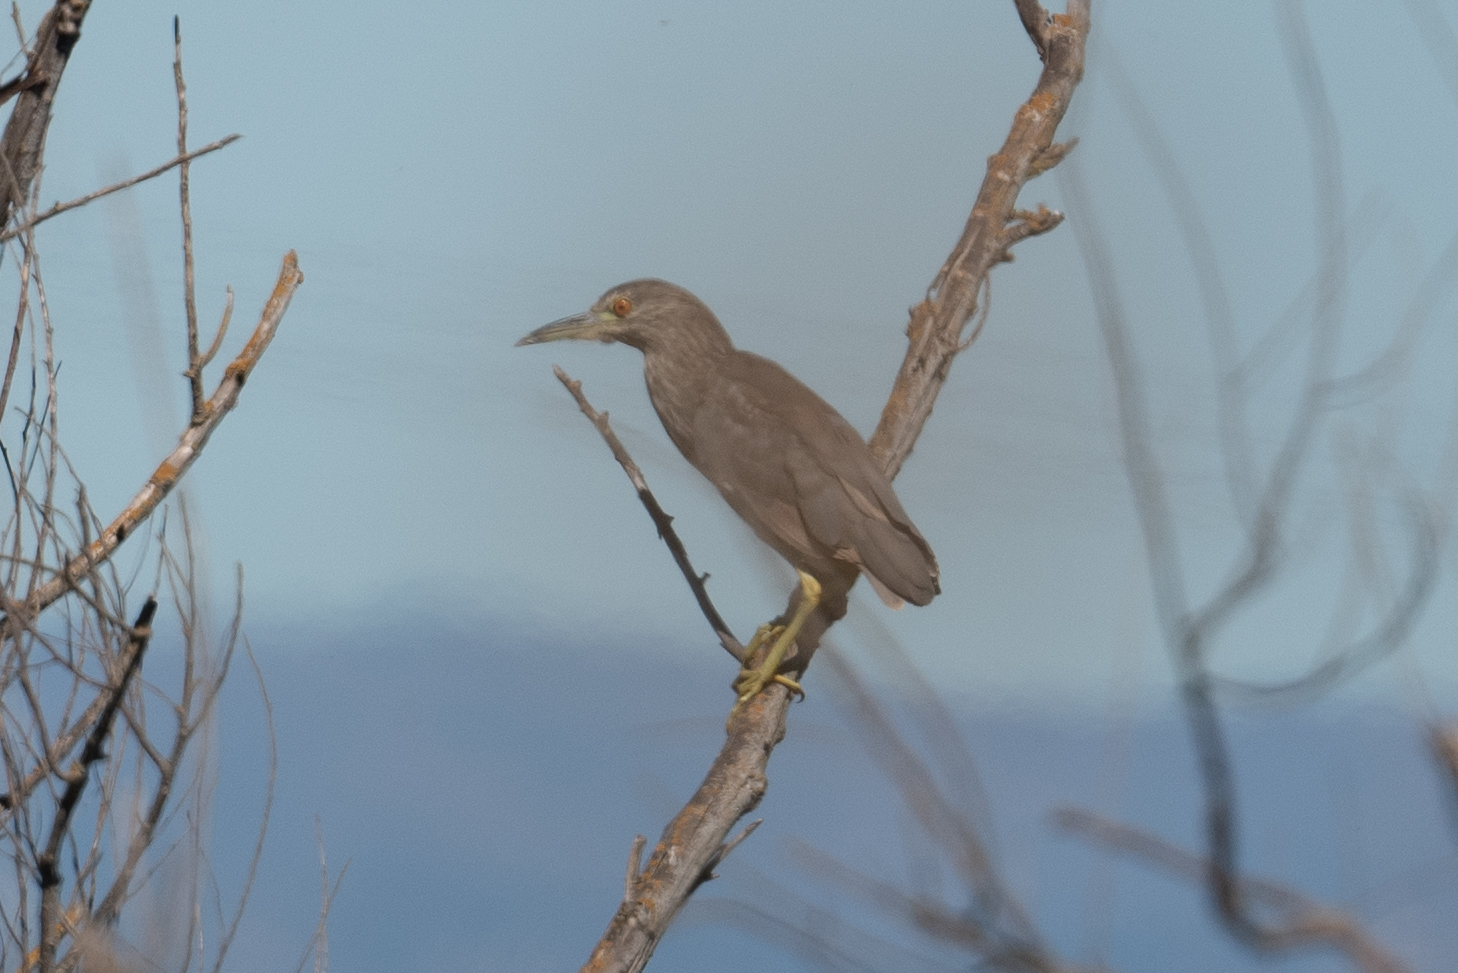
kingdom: Animalia
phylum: Chordata
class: Aves
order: Pelecaniformes
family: Ardeidae
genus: Nycticorax
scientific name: Nycticorax nycticorax
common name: Black-crowned night heron
